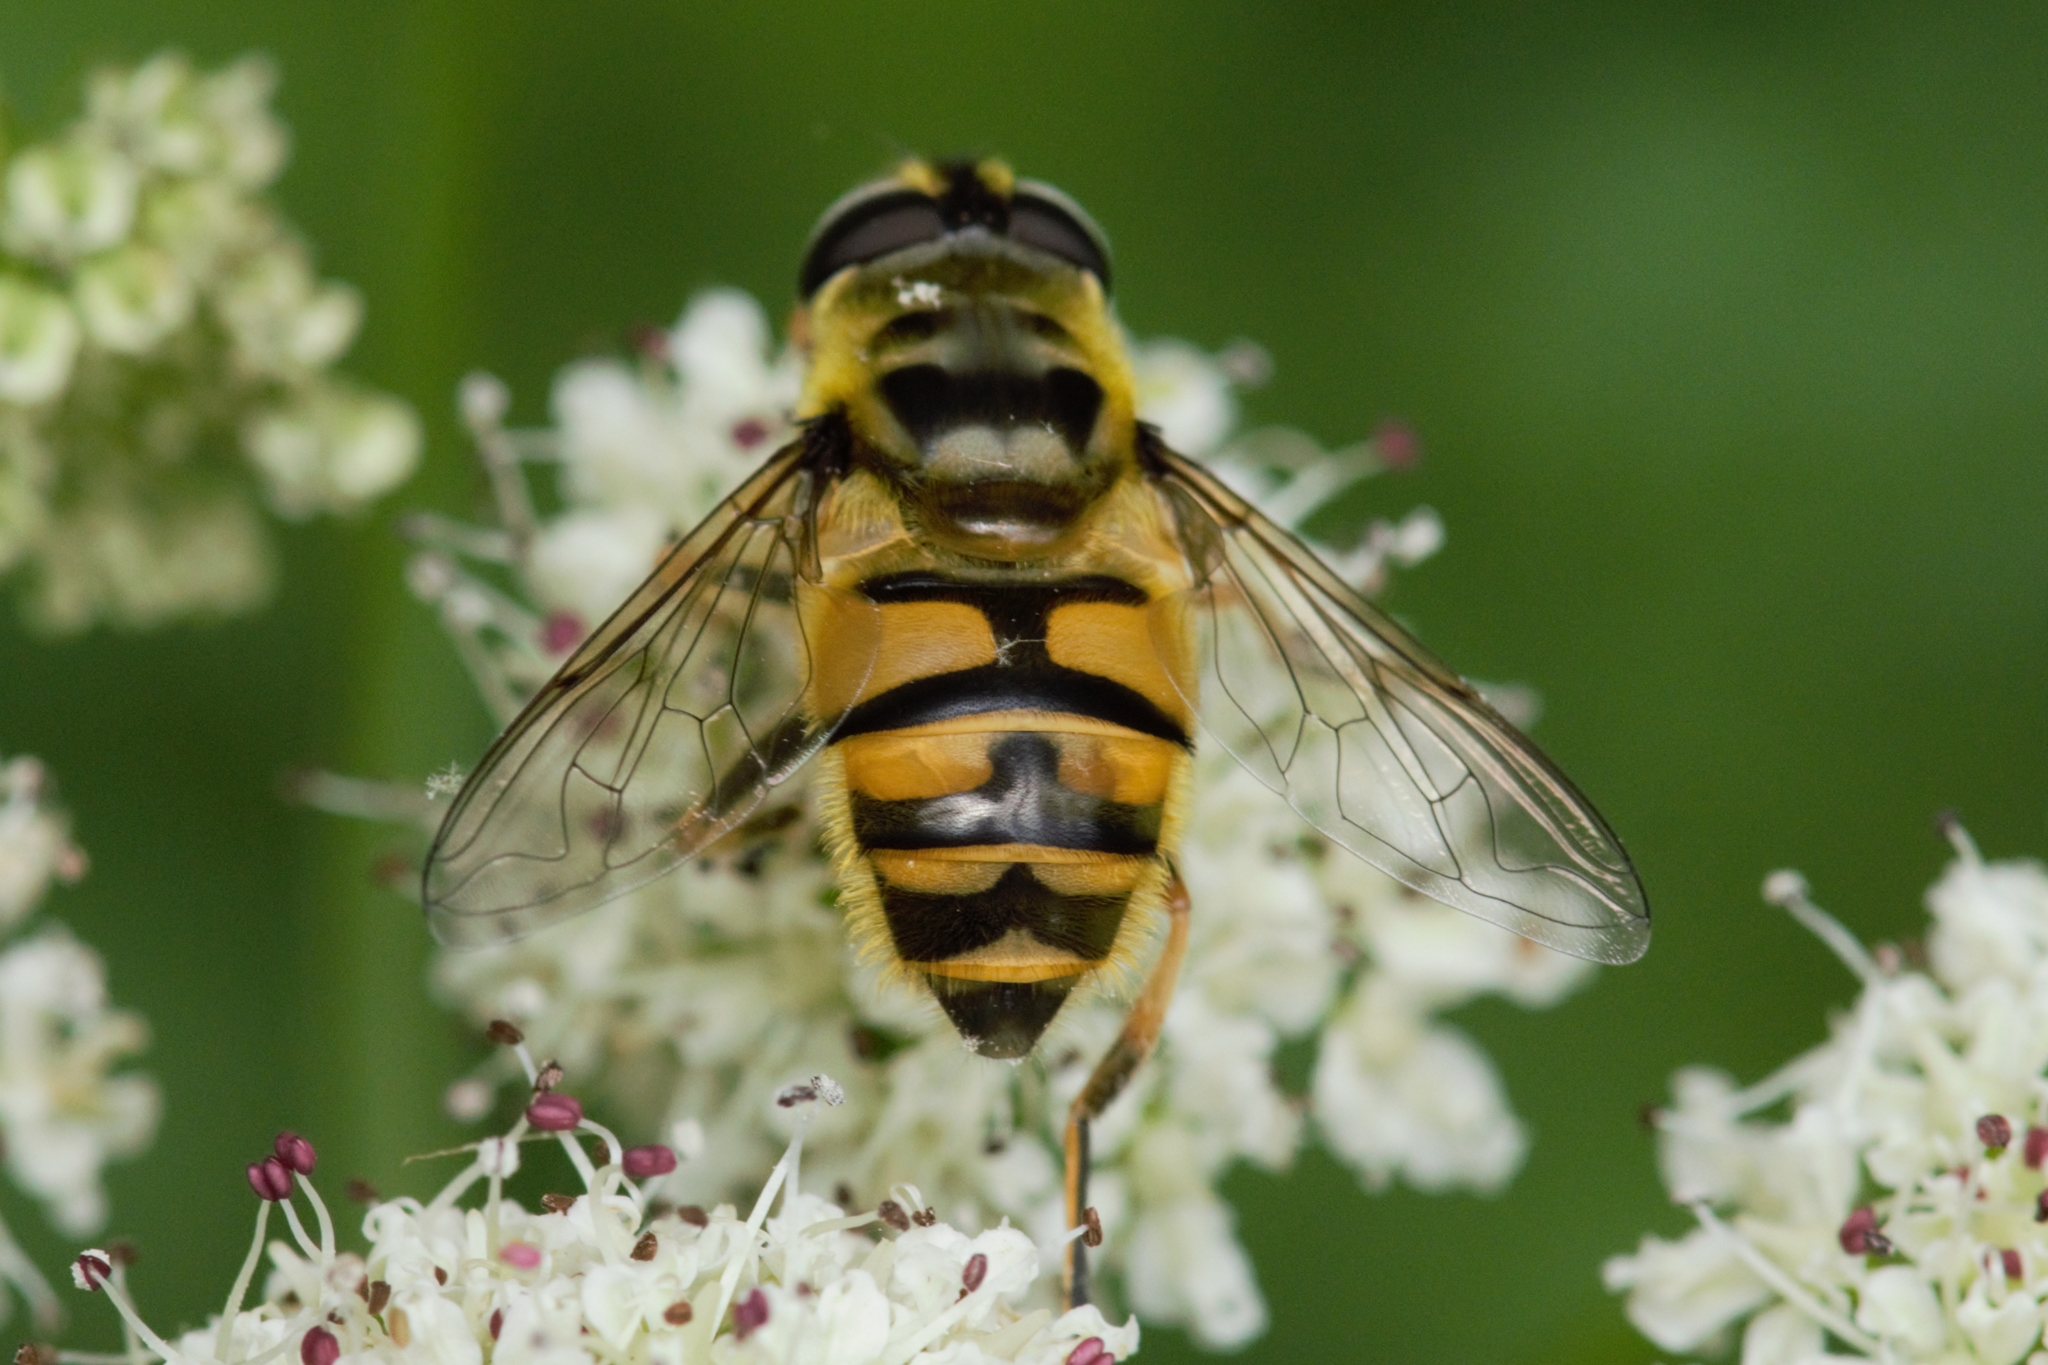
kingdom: Animalia
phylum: Arthropoda
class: Insecta
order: Diptera
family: Syrphidae
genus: Myathropa
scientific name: Myathropa florea
